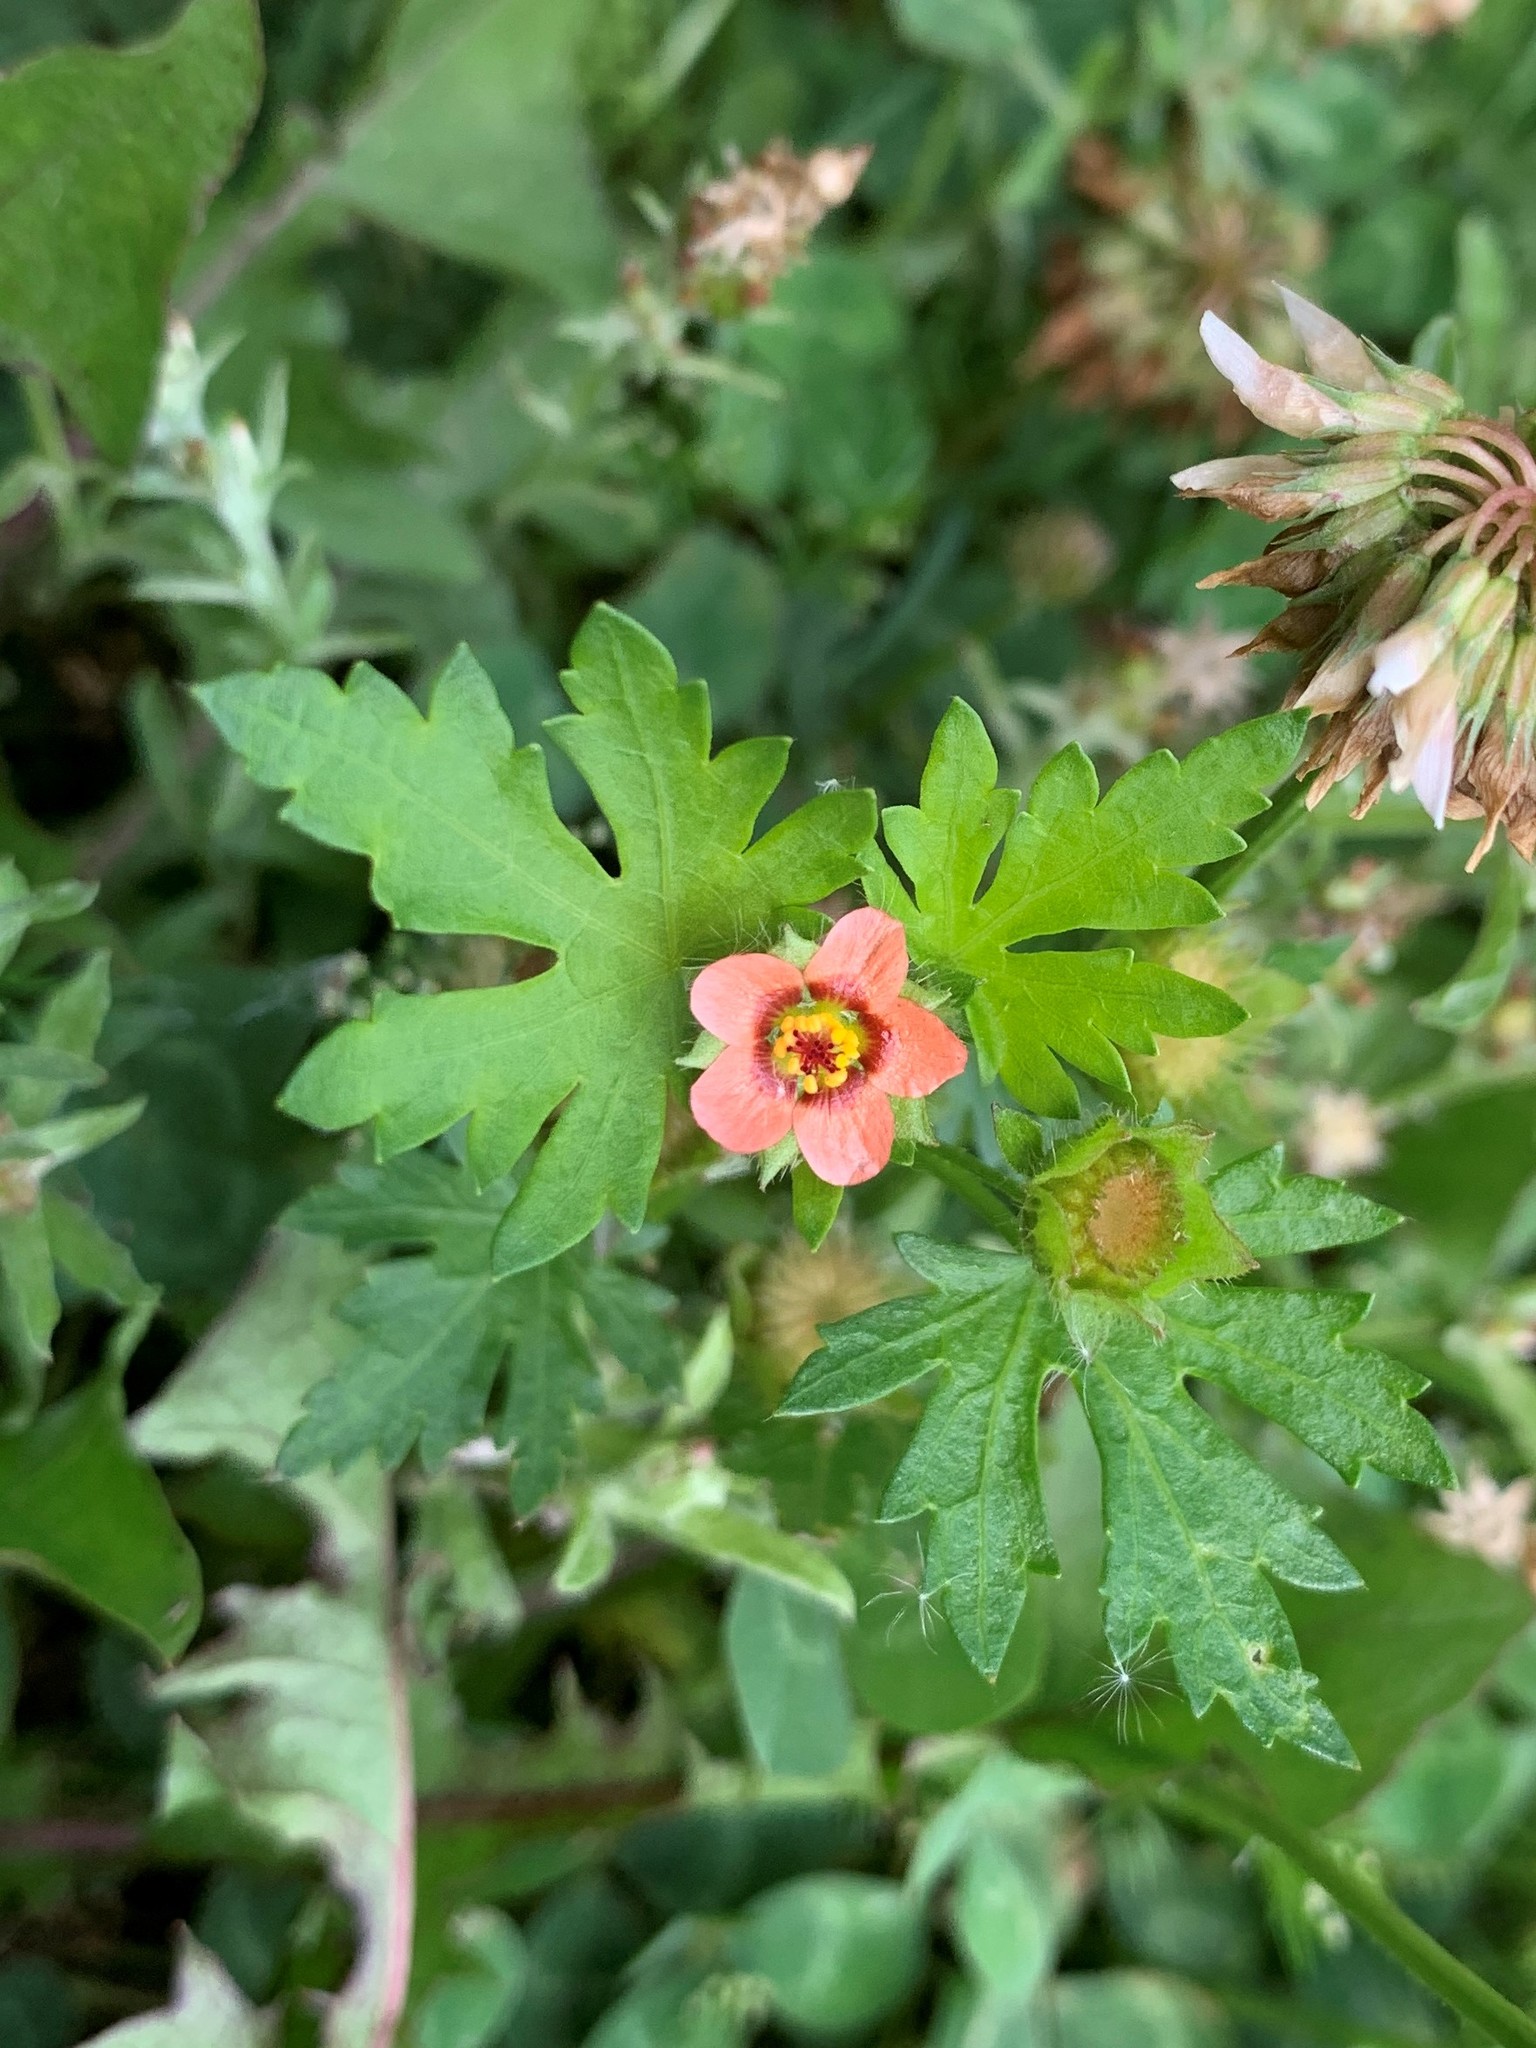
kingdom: Plantae
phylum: Tracheophyta
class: Magnoliopsida
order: Malvales
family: Malvaceae
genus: Modiola
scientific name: Modiola caroliniana
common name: Carolina bristlemallow
